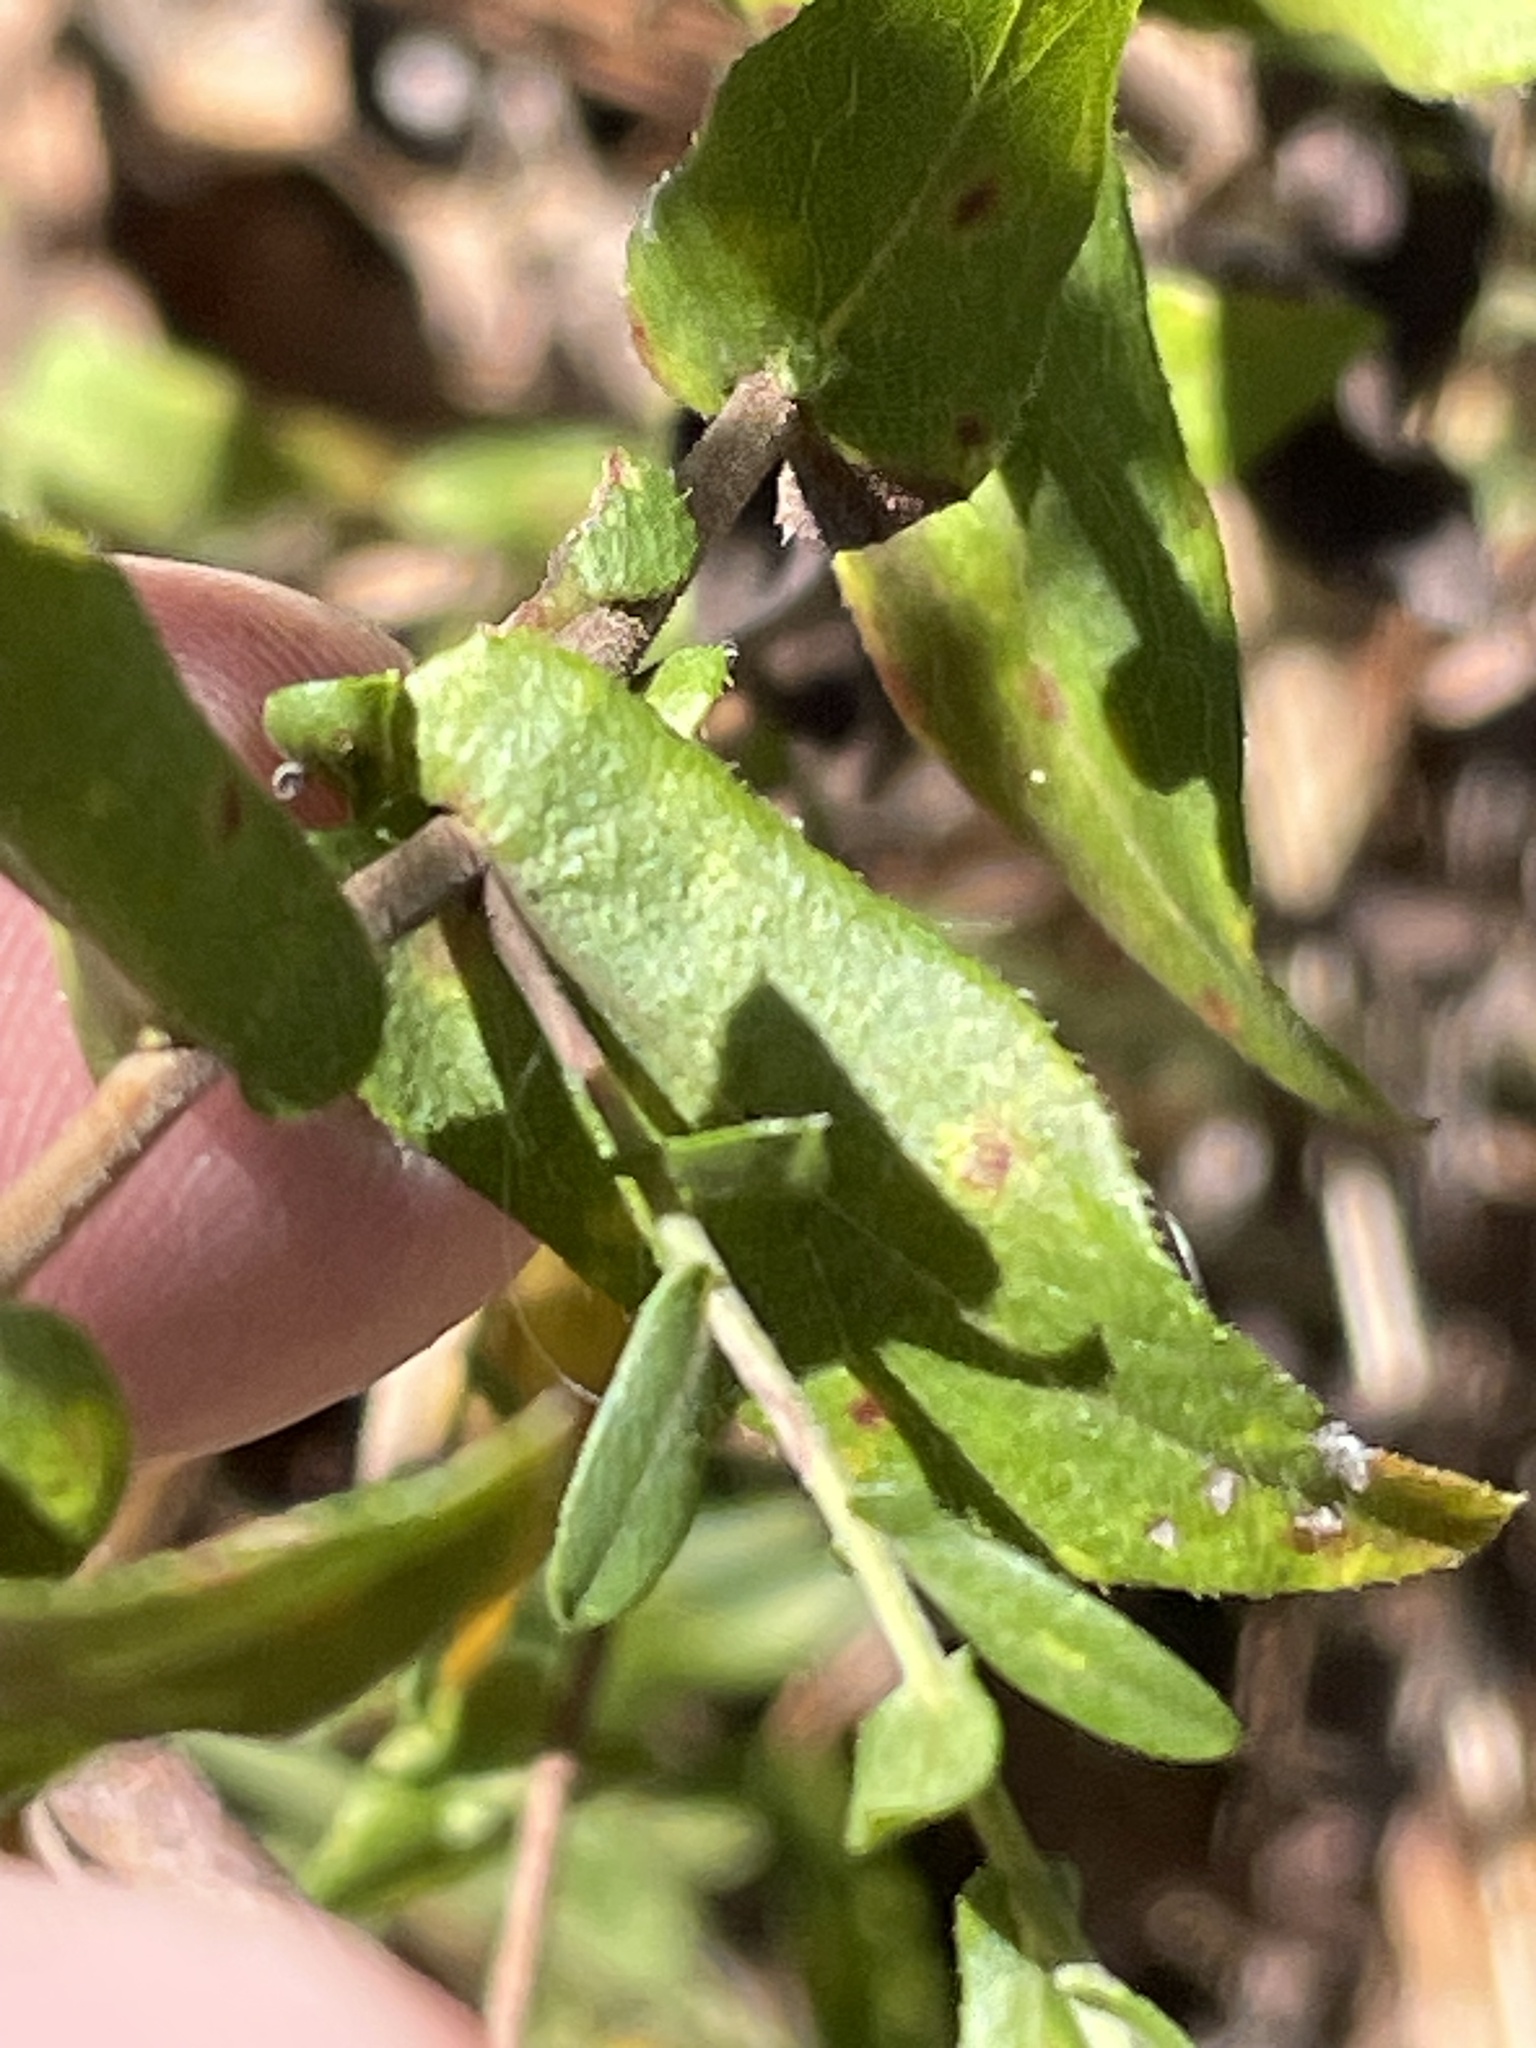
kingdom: Plantae
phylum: Tracheophyta
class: Magnoliopsida
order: Asterales
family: Asteraceae
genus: Symphyotrichum
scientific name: Symphyotrichum patens
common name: Late purple aster
